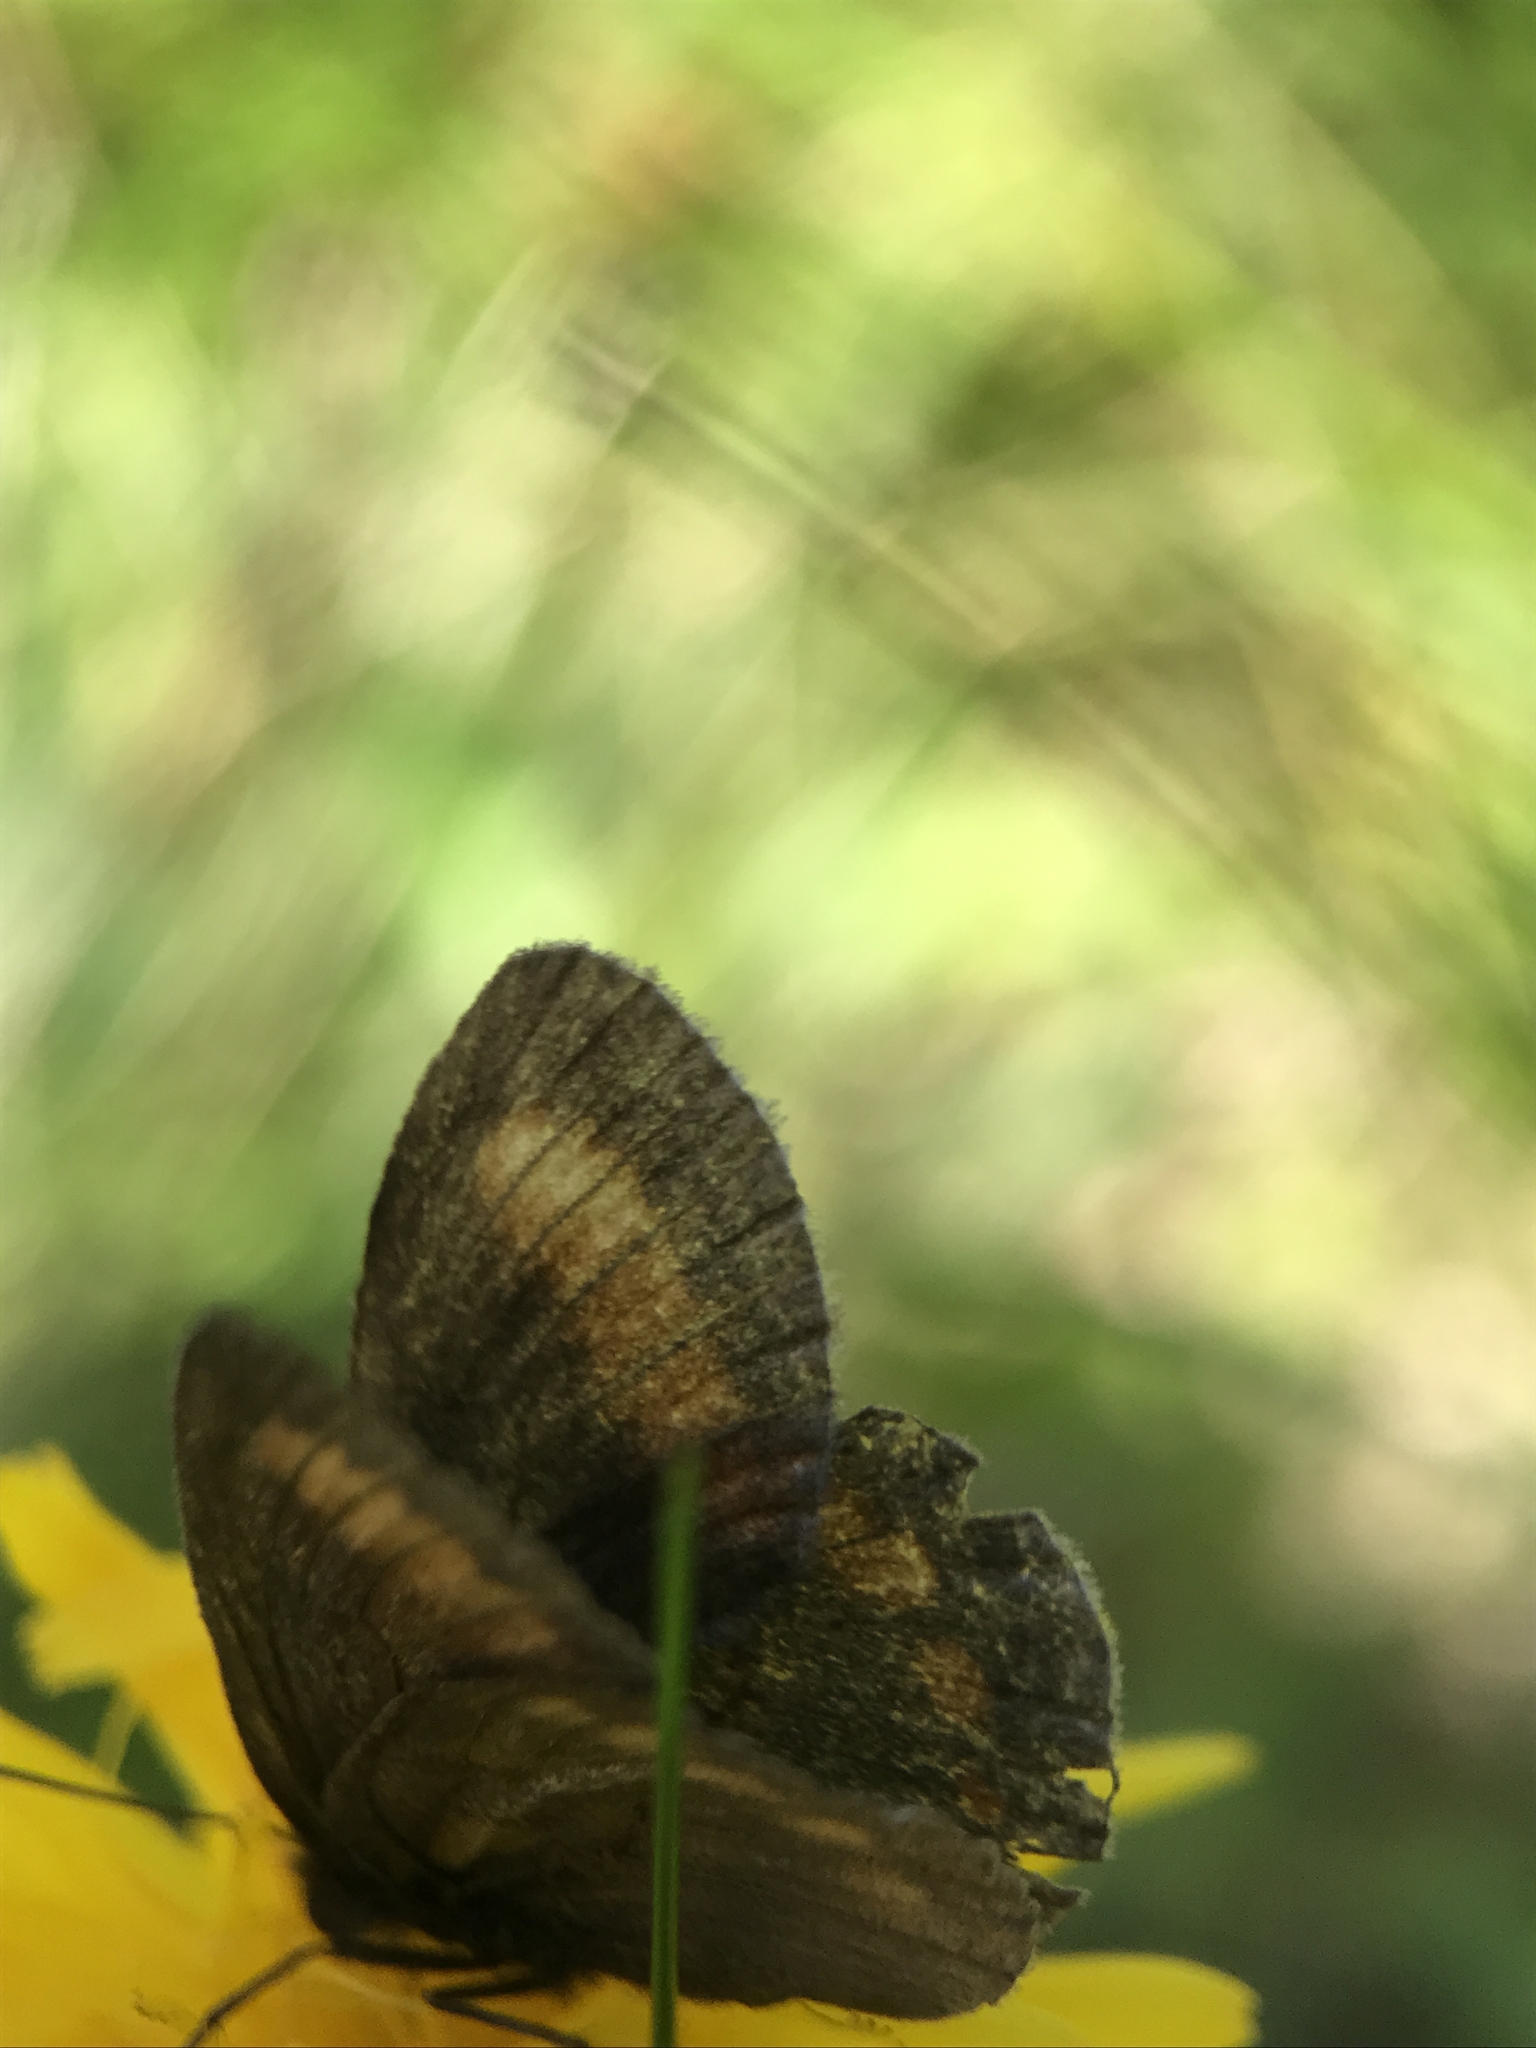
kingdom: Animalia
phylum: Arthropoda
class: Insecta
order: Lepidoptera
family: Nymphalidae
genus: Erebia
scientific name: Erebia pharte
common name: Blind ringlet
